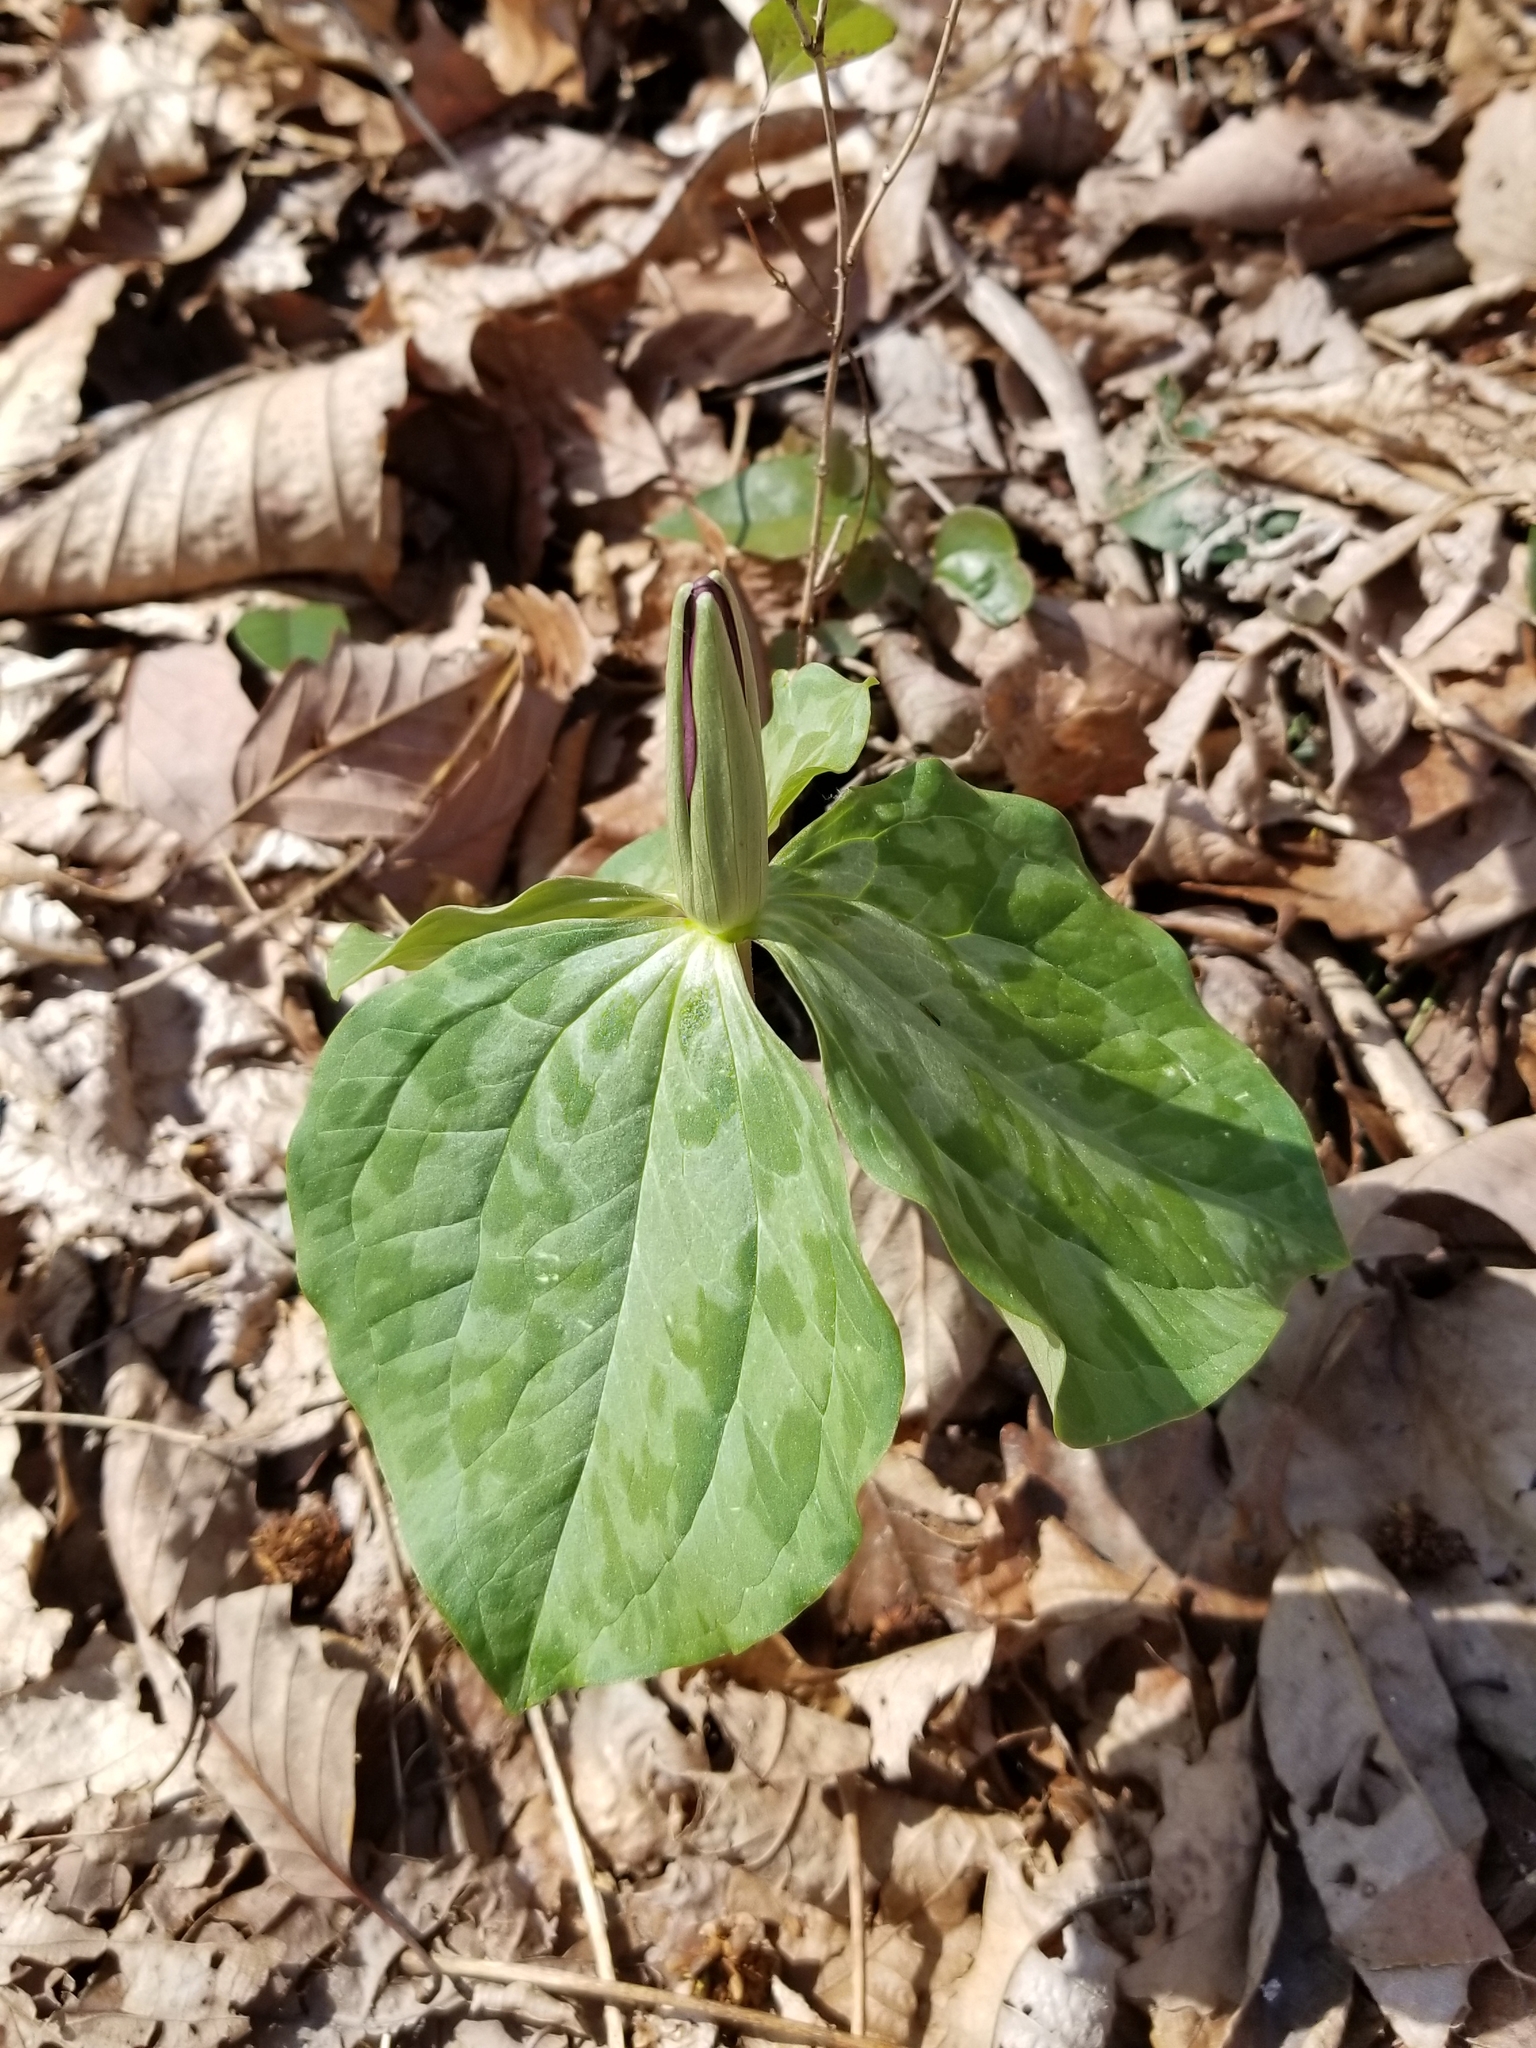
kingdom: Plantae
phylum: Tracheophyta
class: Liliopsida
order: Liliales
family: Melanthiaceae
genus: Trillium
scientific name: Trillium cuneatum
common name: Cuneate trillium
